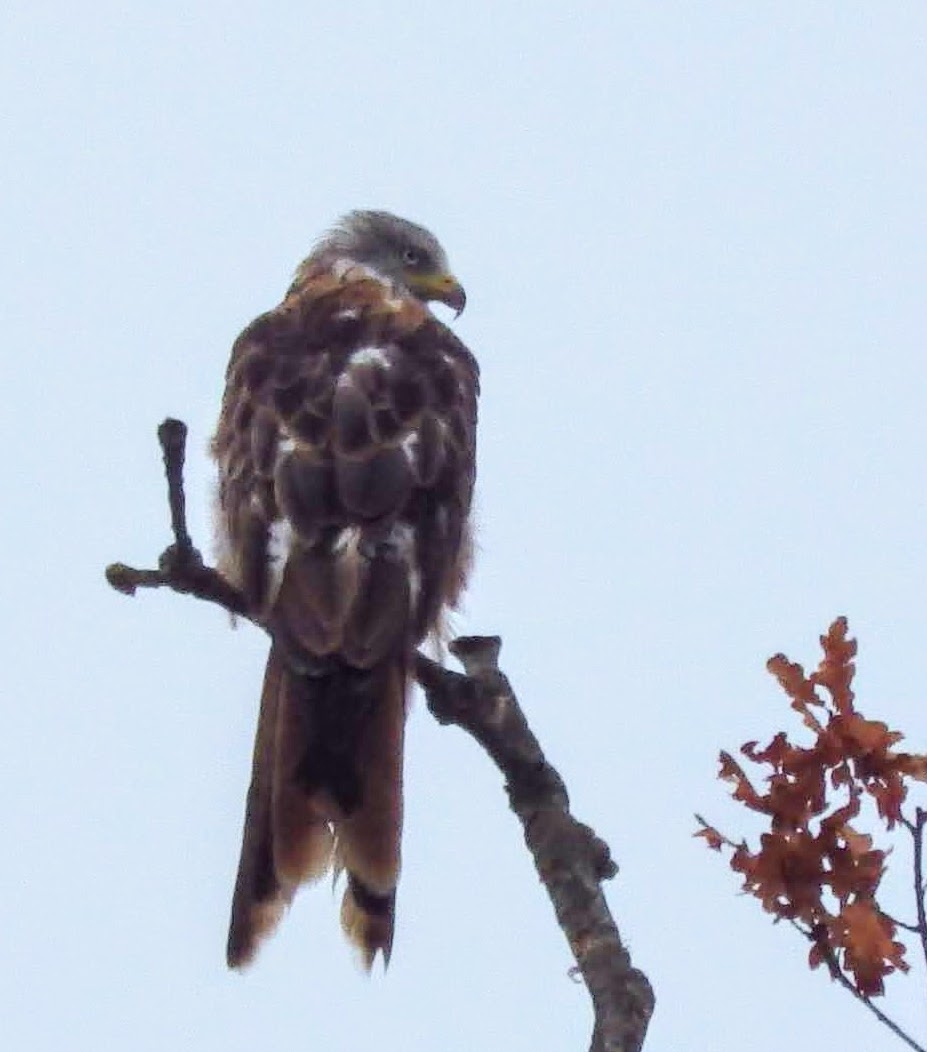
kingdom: Animalia
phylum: Chordata
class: Aves
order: Accipitriformes
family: Accipitridae
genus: Milvus
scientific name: Milvus milvus
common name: Red kite
